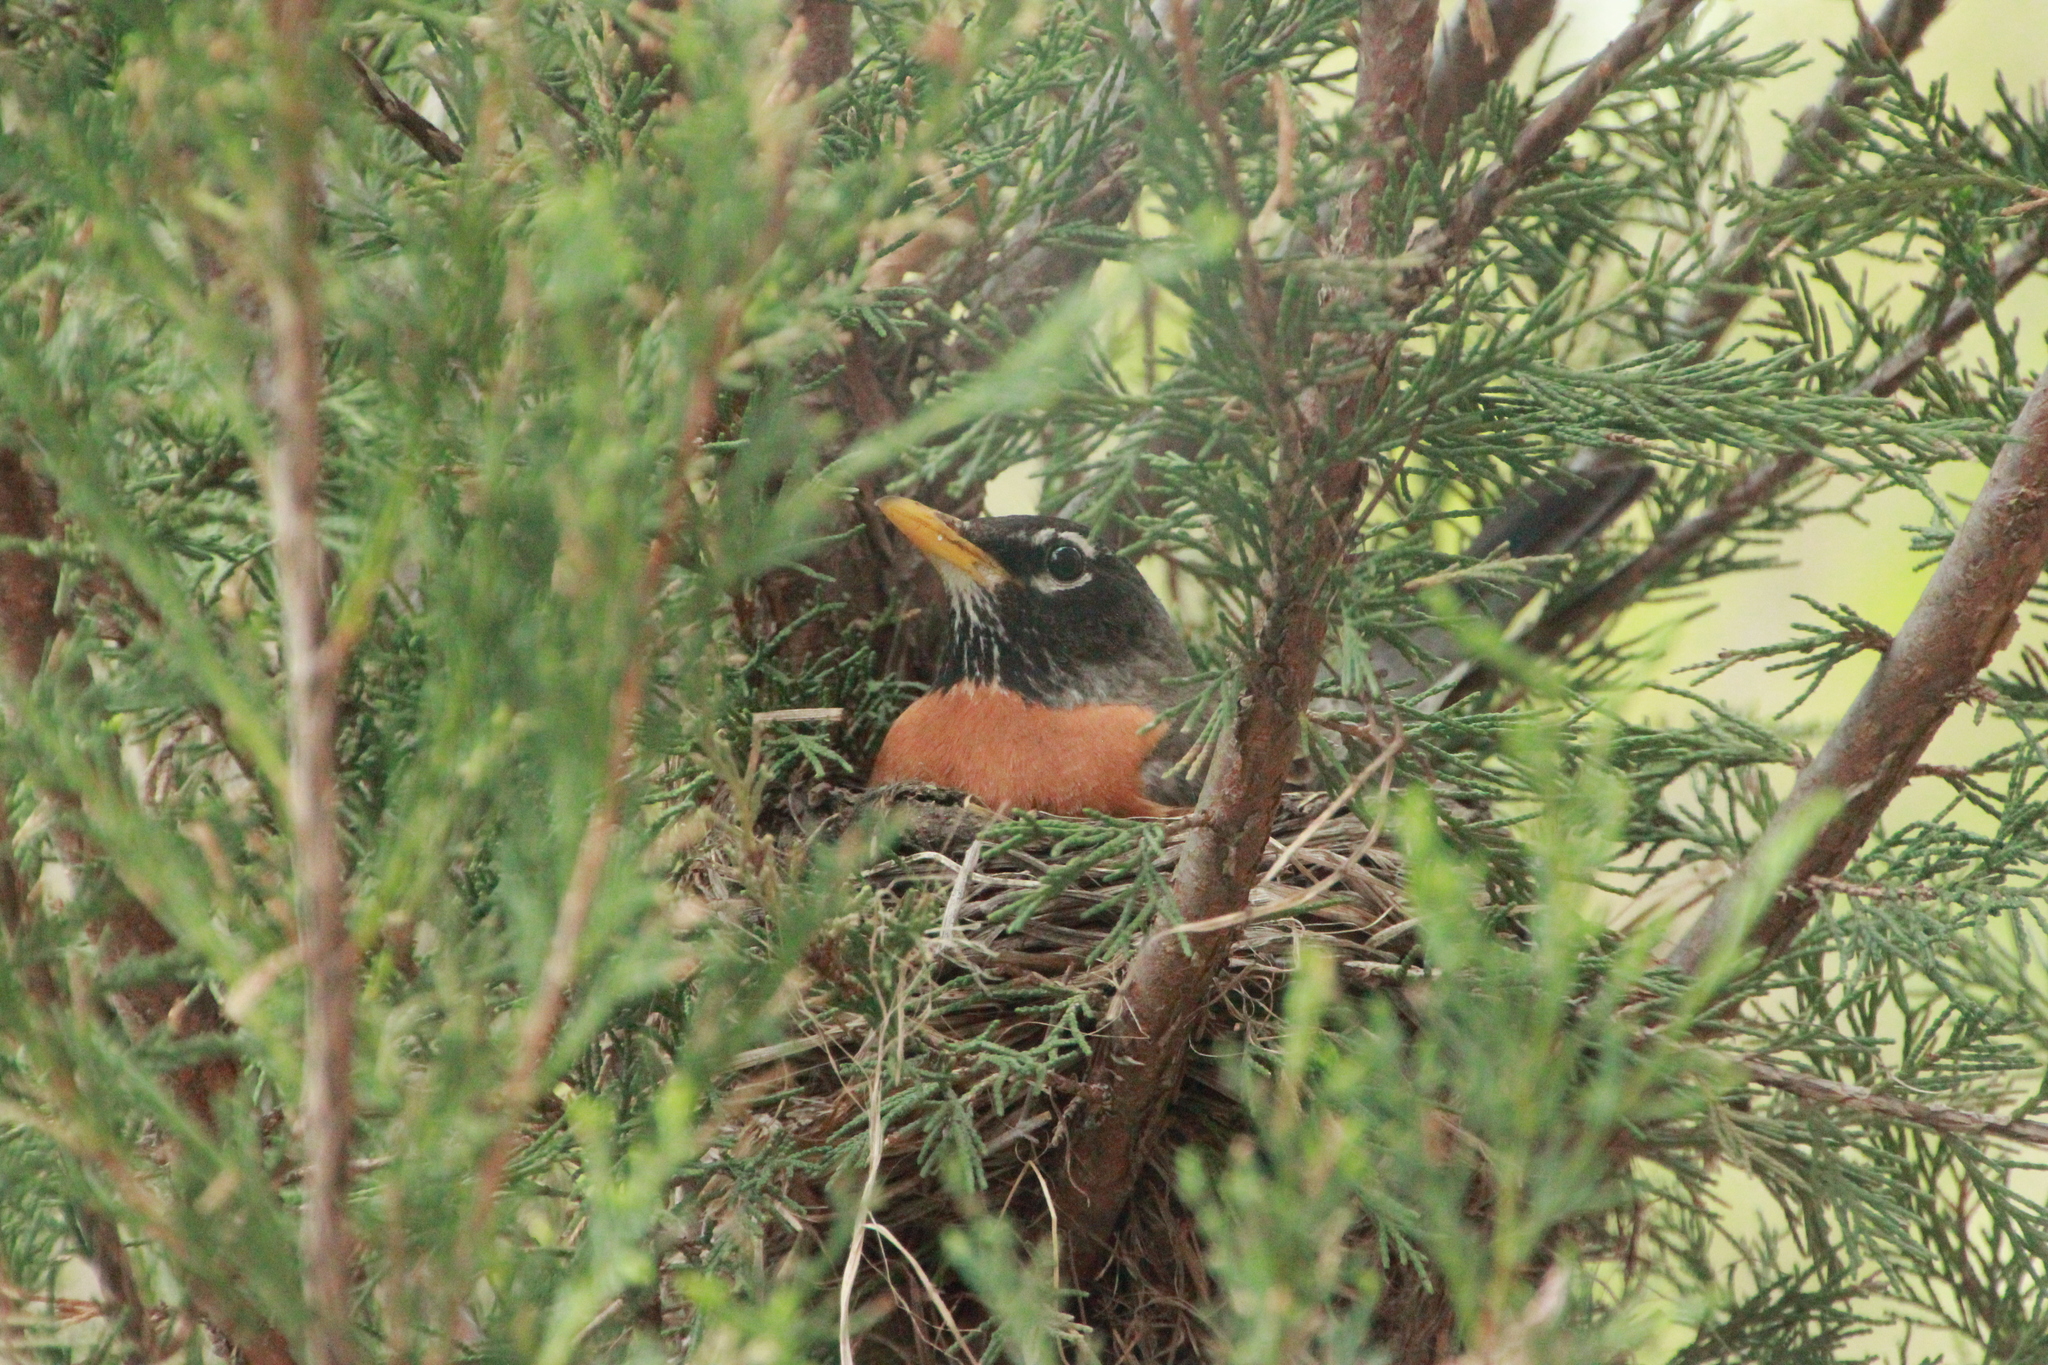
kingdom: Animalia
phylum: Chordata
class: Aves
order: Passeriformes
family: Turdidae
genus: Turdus
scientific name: Turdus migratorius
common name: American robin
